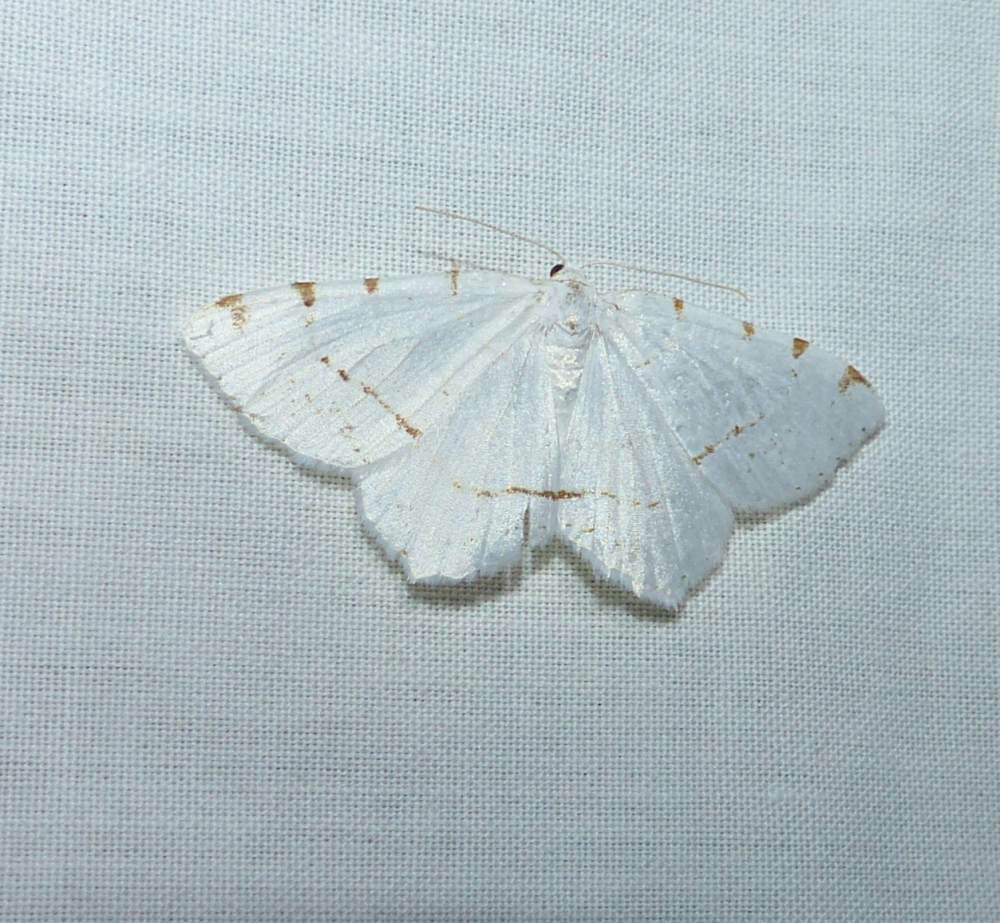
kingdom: Animalia
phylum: Arthropoda
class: Insecta
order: Lepidoptera
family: Geometridae
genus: Macaria
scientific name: Macaria pustularia
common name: Lesser maple spanworm moth
